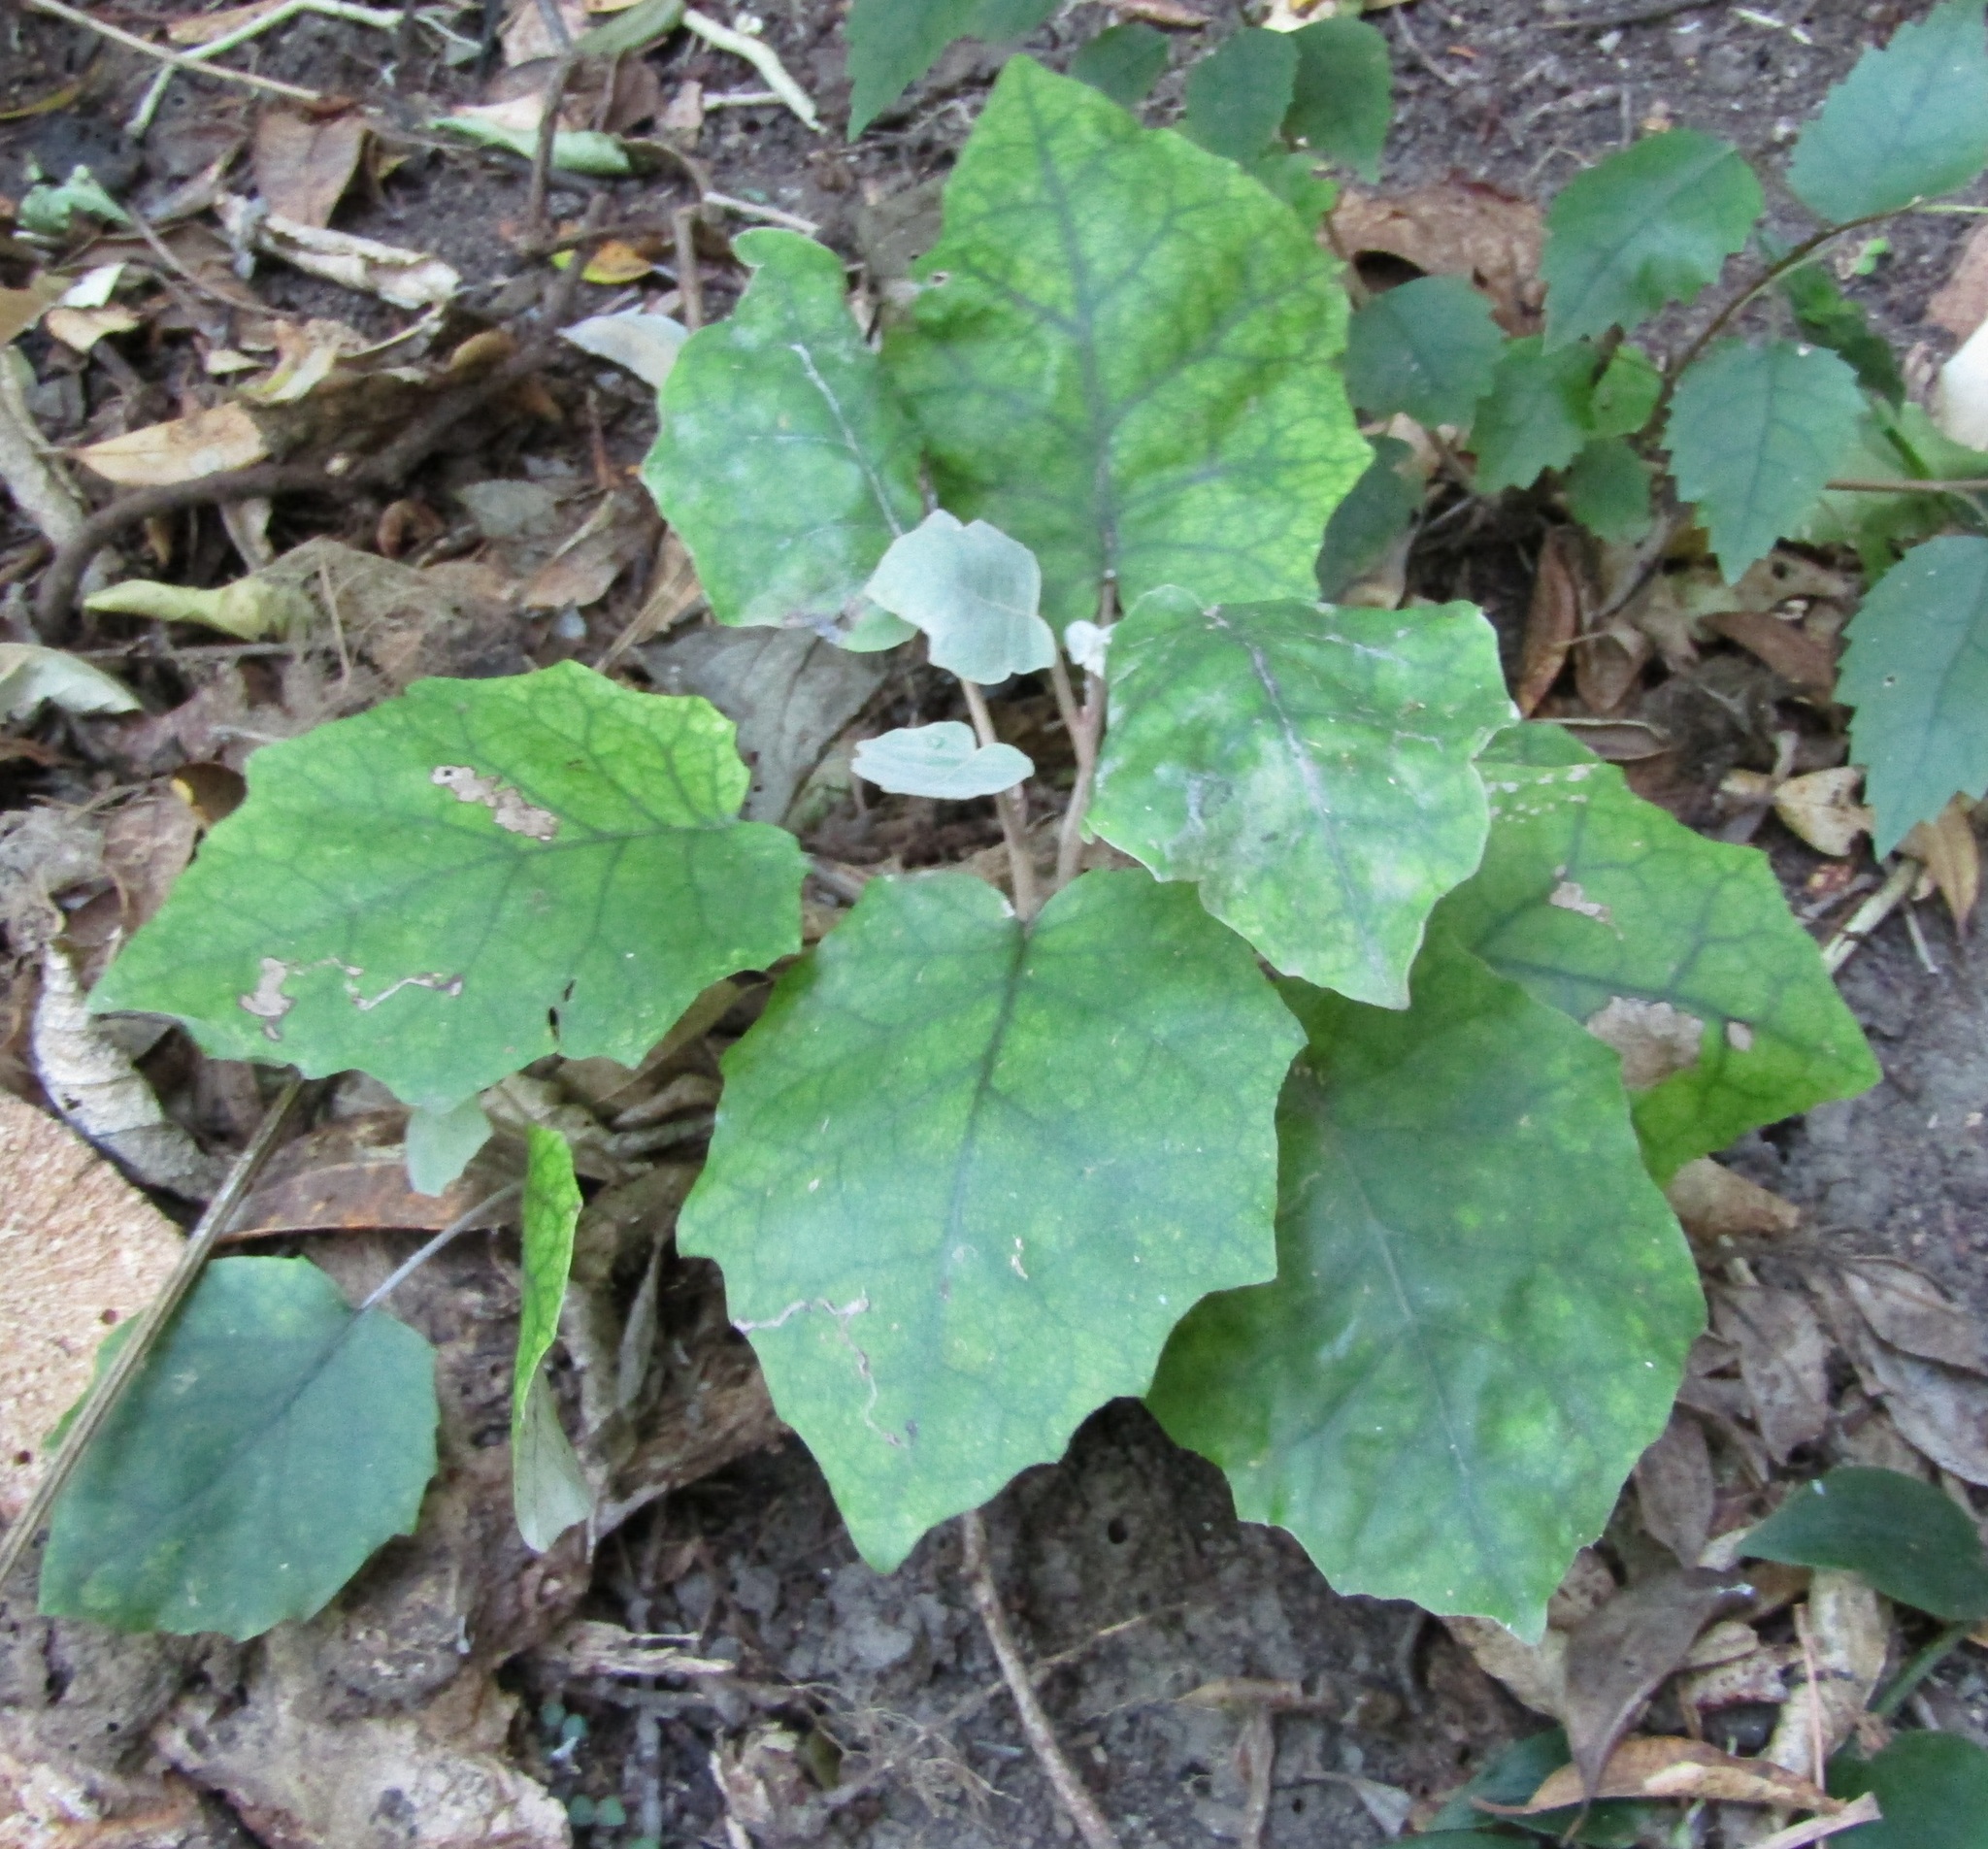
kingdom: Plantae
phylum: Tracheophyta
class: Magnoliopsida
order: Asterales
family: Asteraceae
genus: Brachyglottis
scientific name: Brachyglottis repanda
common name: Hedge ragwort
